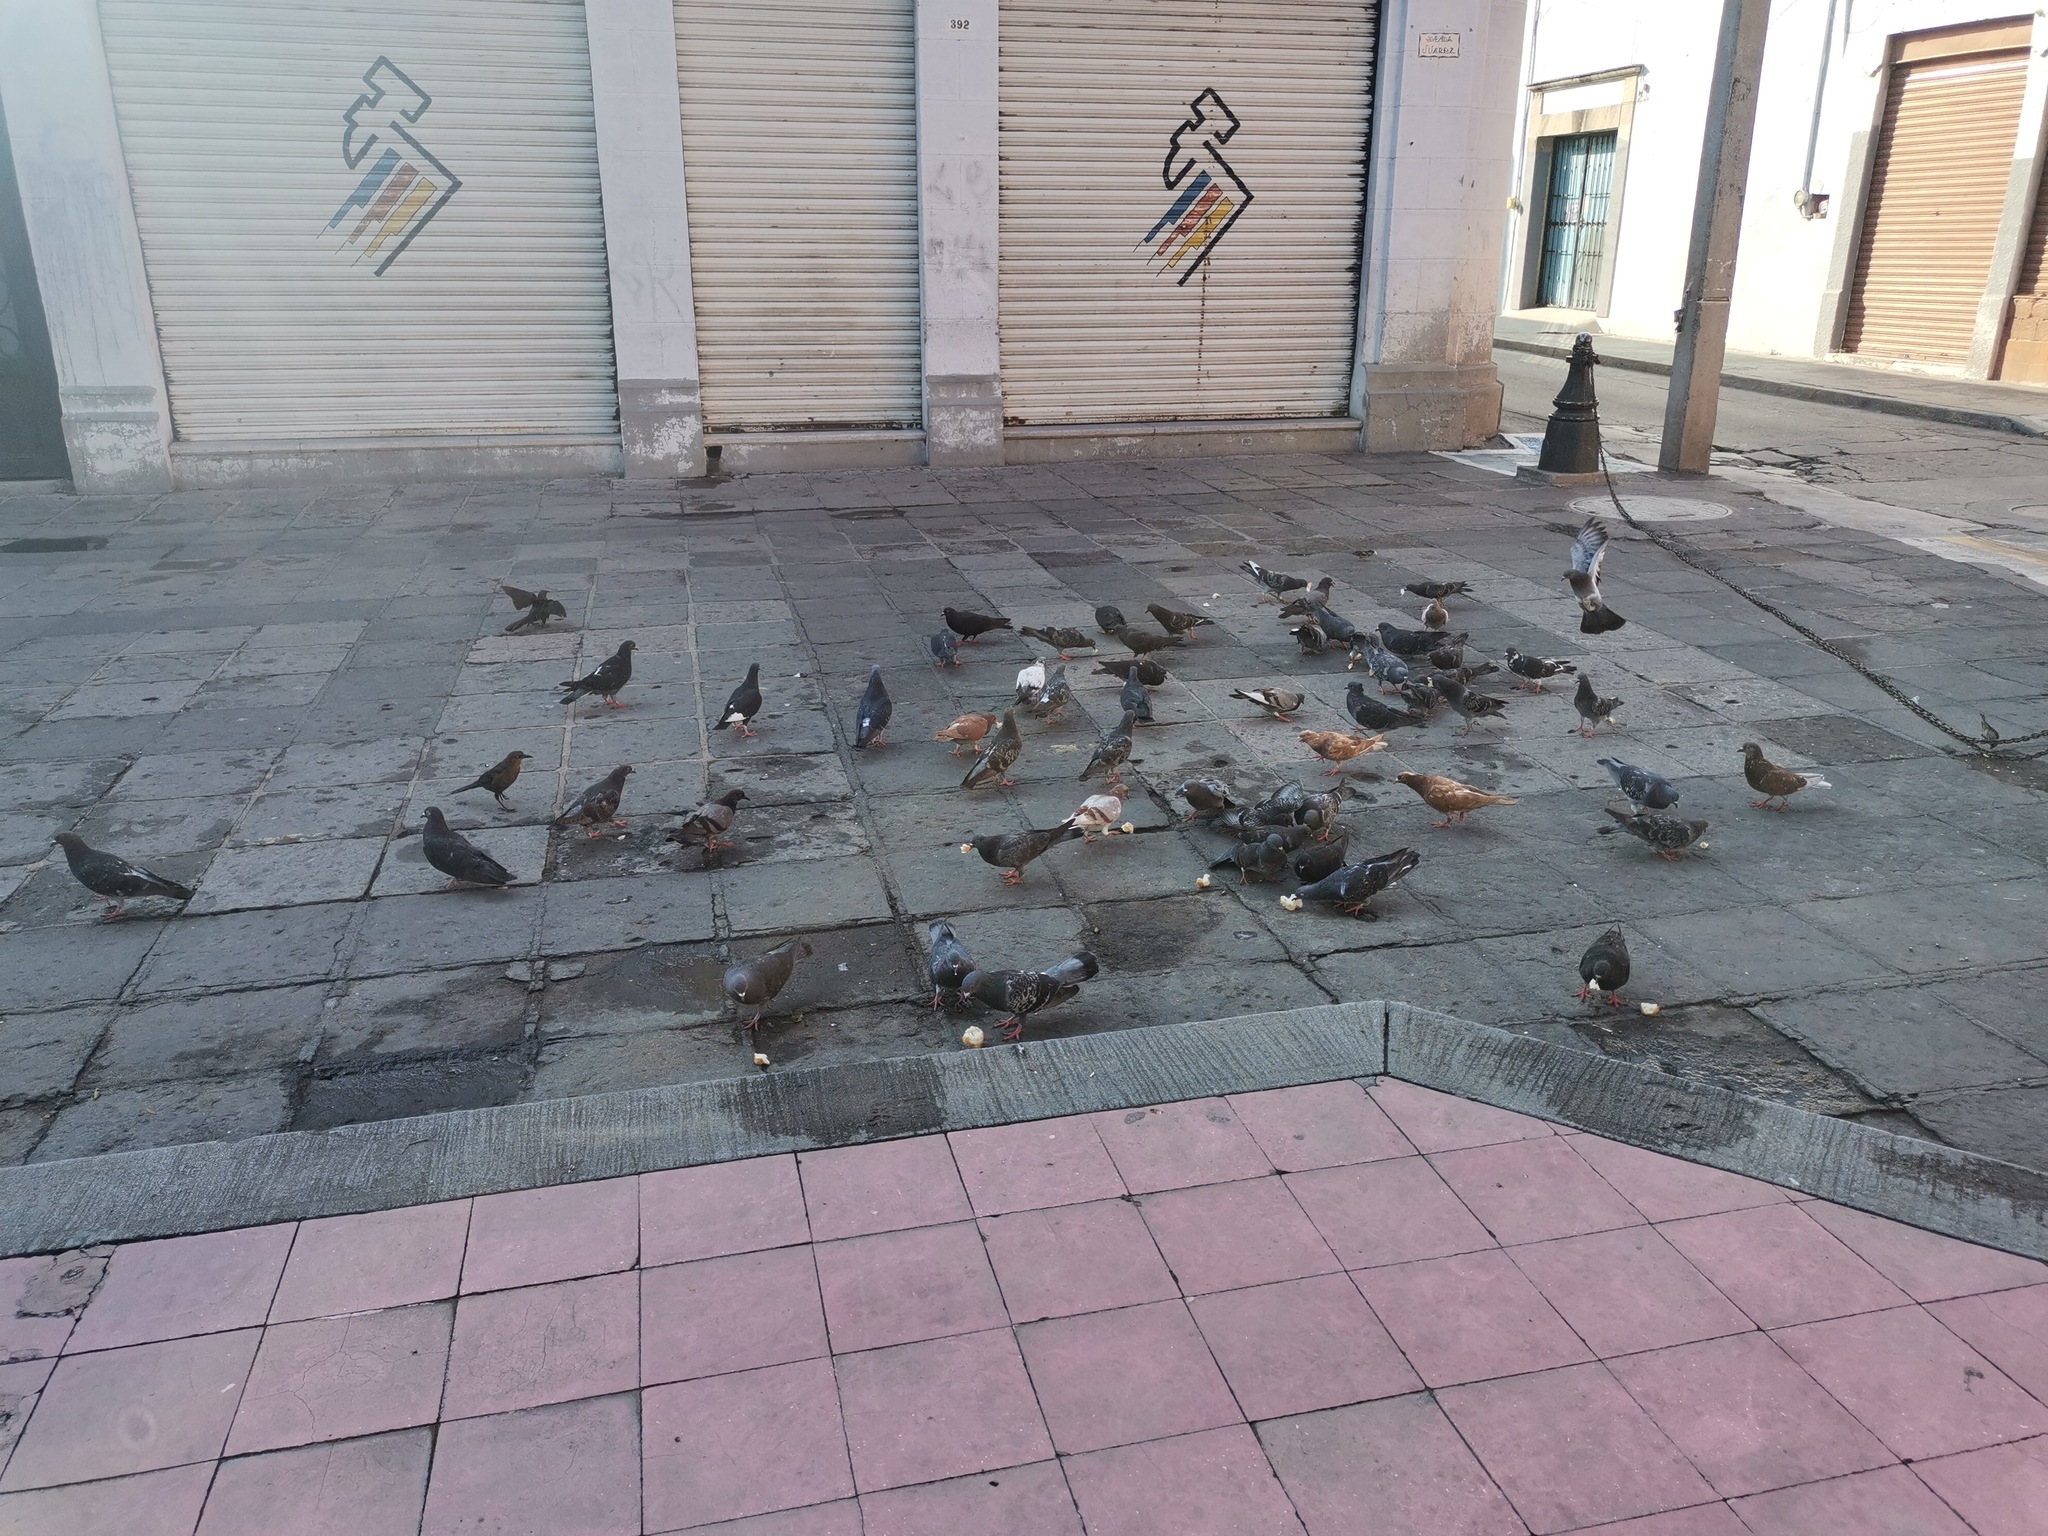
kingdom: Animalia
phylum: Chordata
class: Aves
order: Columbiformes
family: Columbidae
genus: Columba
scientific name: Columba livia
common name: Rock pigeon
